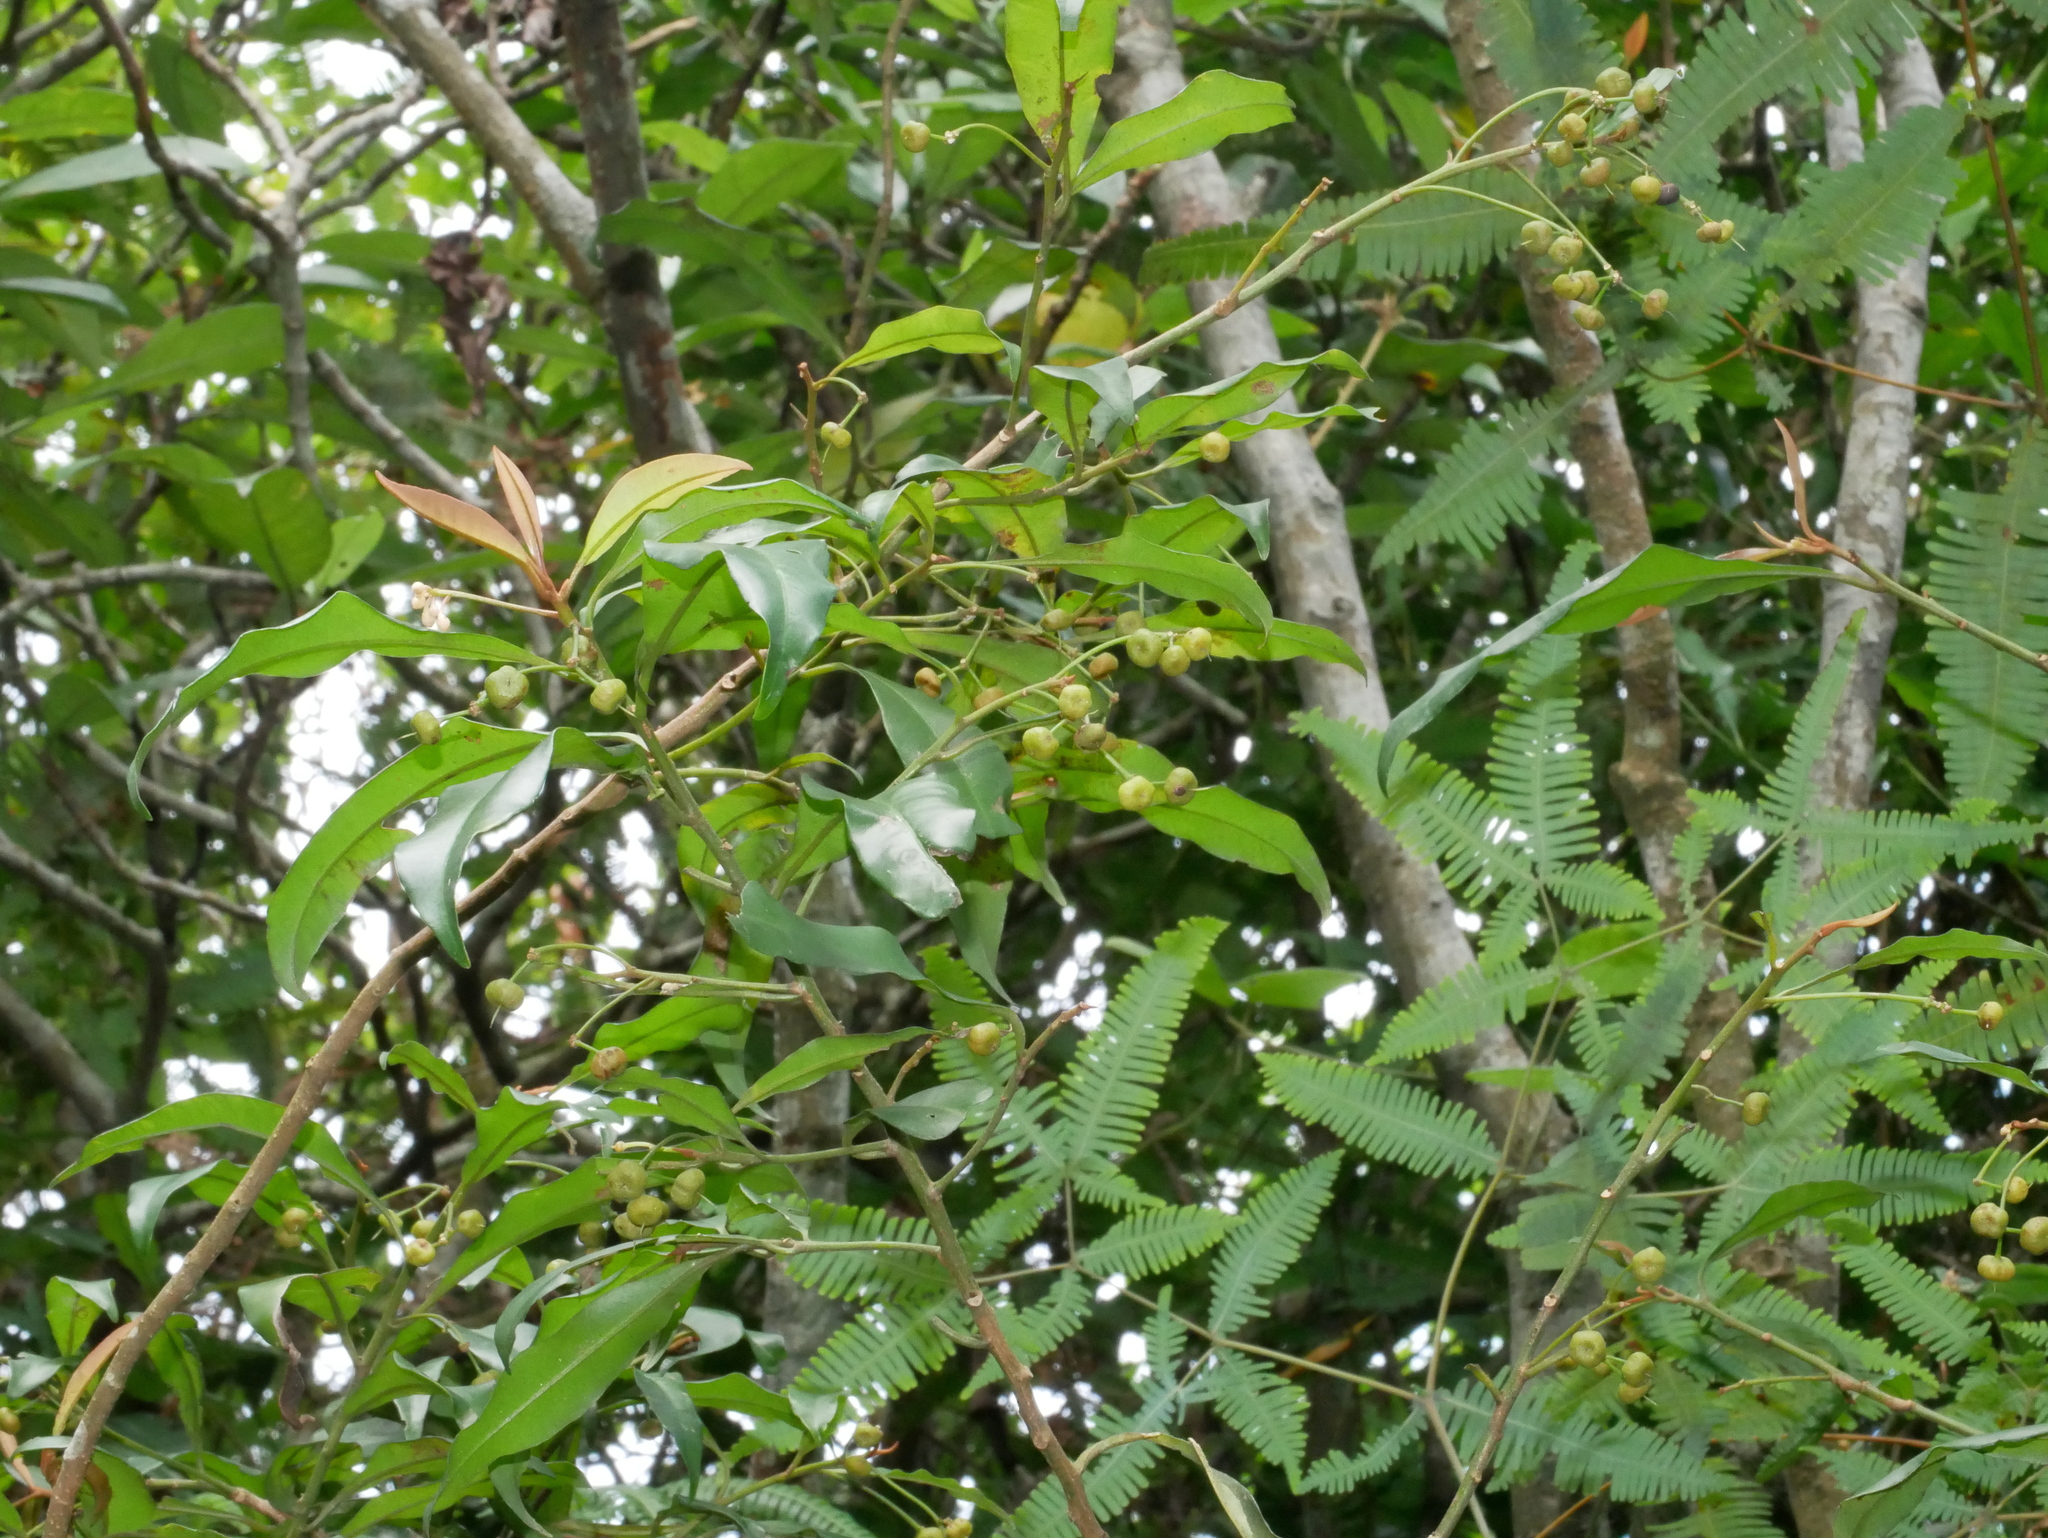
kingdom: Plantae
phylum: Tracheophyta
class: Magnoliopsida
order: Ericales
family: Primulaceae
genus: Ardisia
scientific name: Ardisia quinquegona
